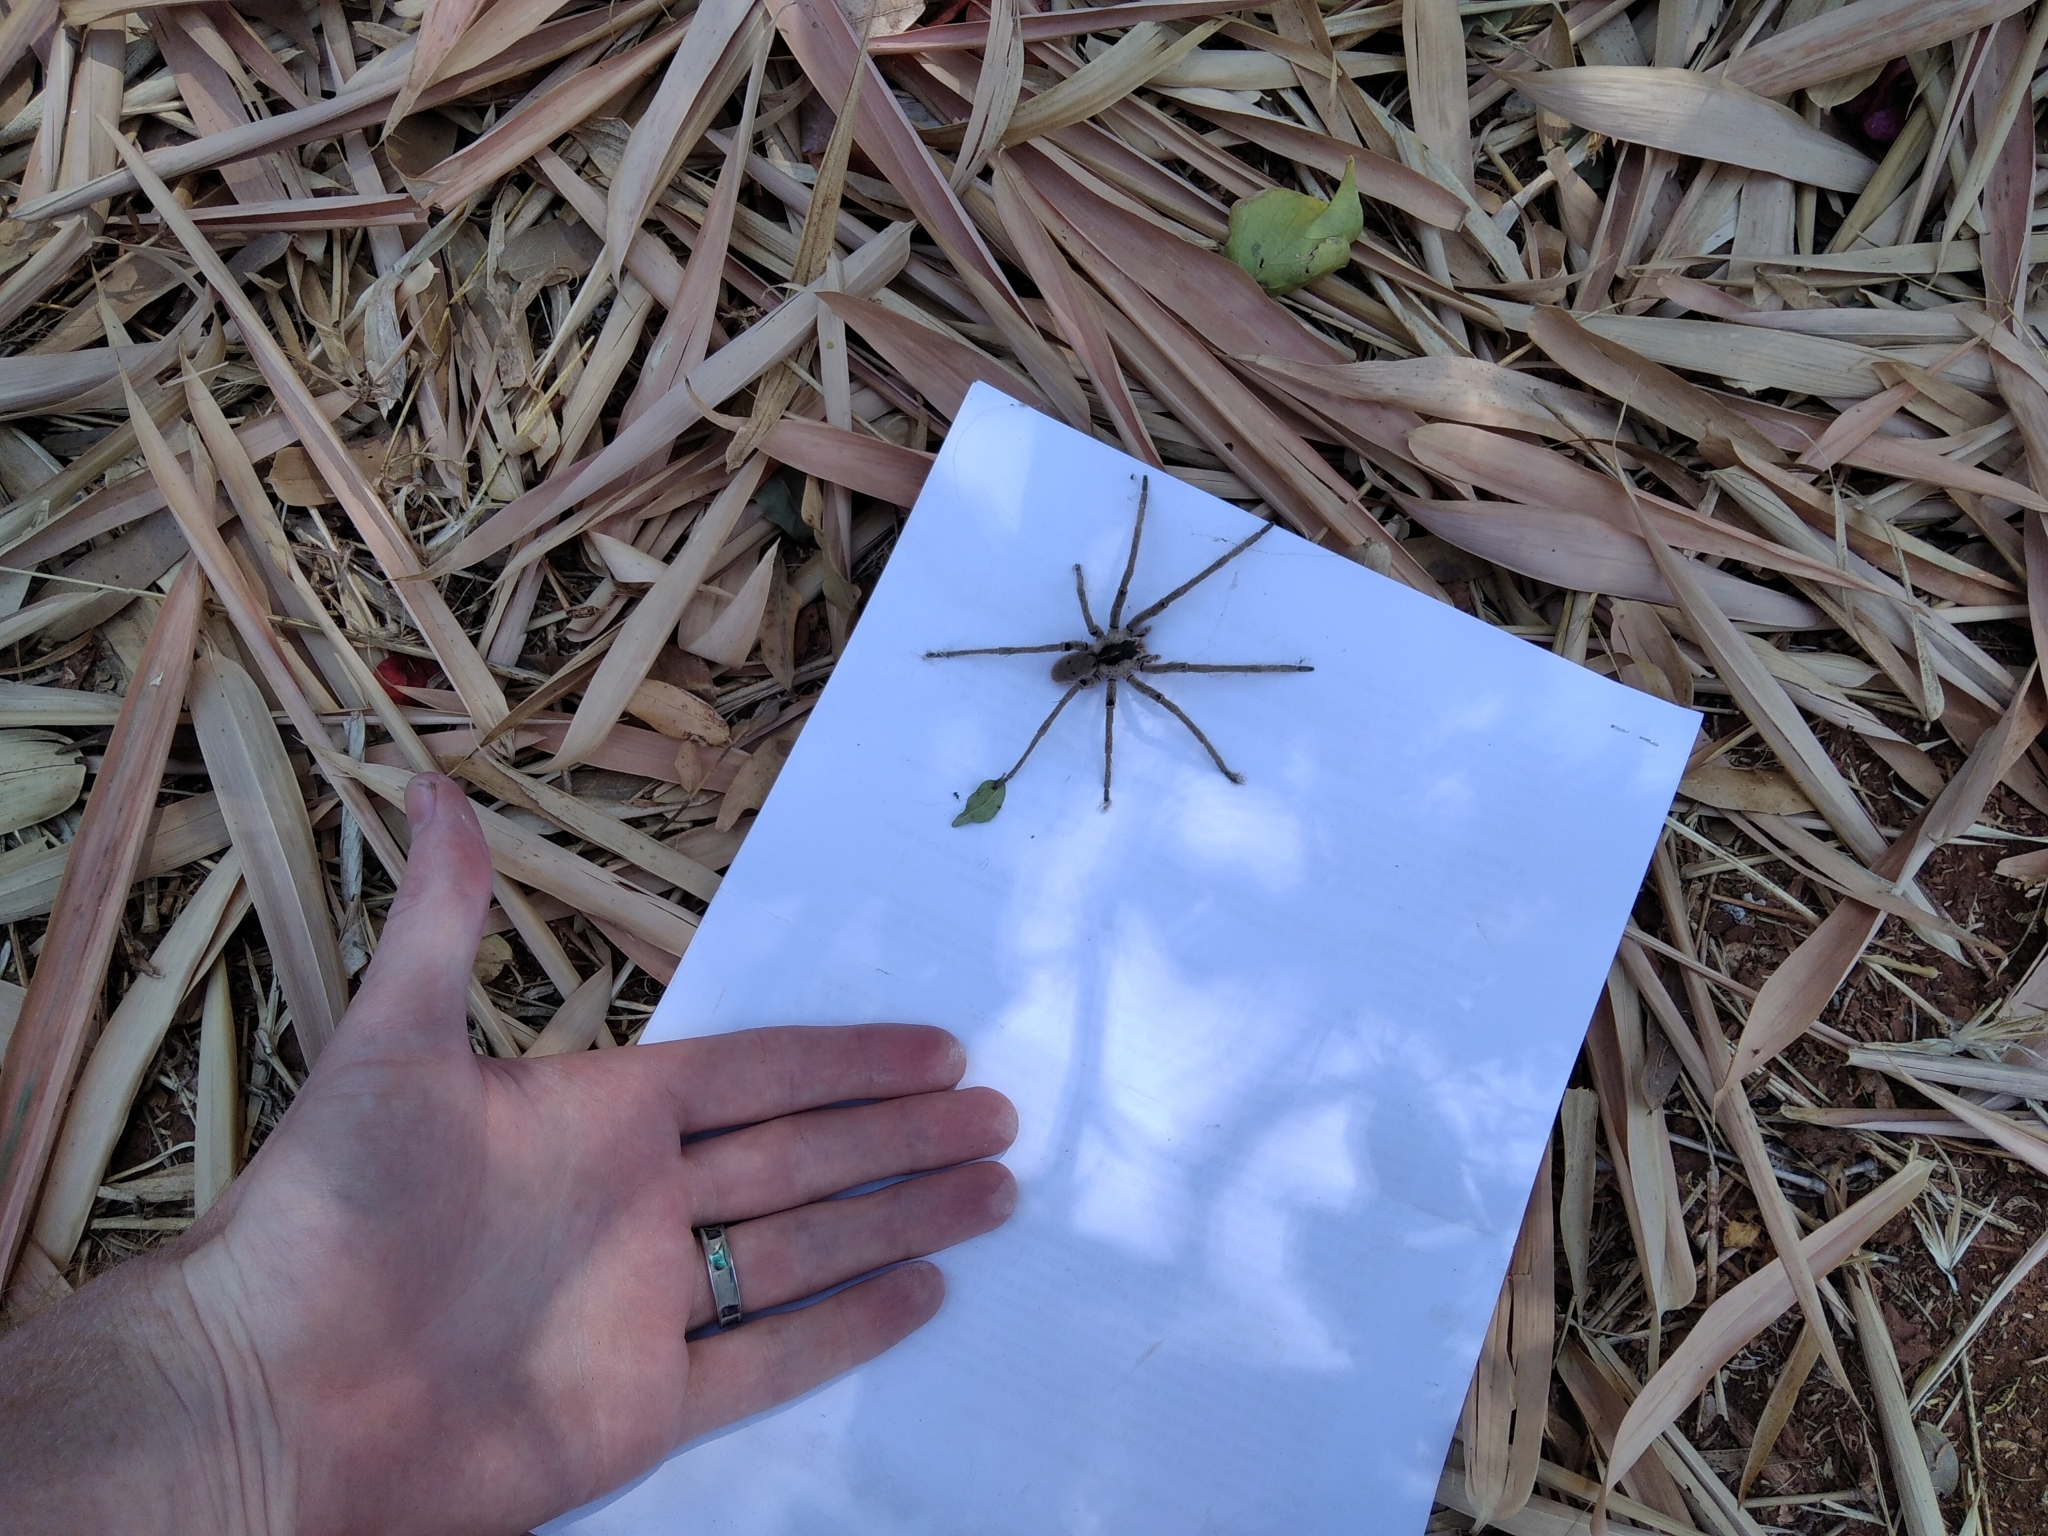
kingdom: Animalia
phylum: Arthropoda
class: Arachnida
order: Araneae
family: Ctenidae
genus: Afroneutria
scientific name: Afroneutria erythrochelis
